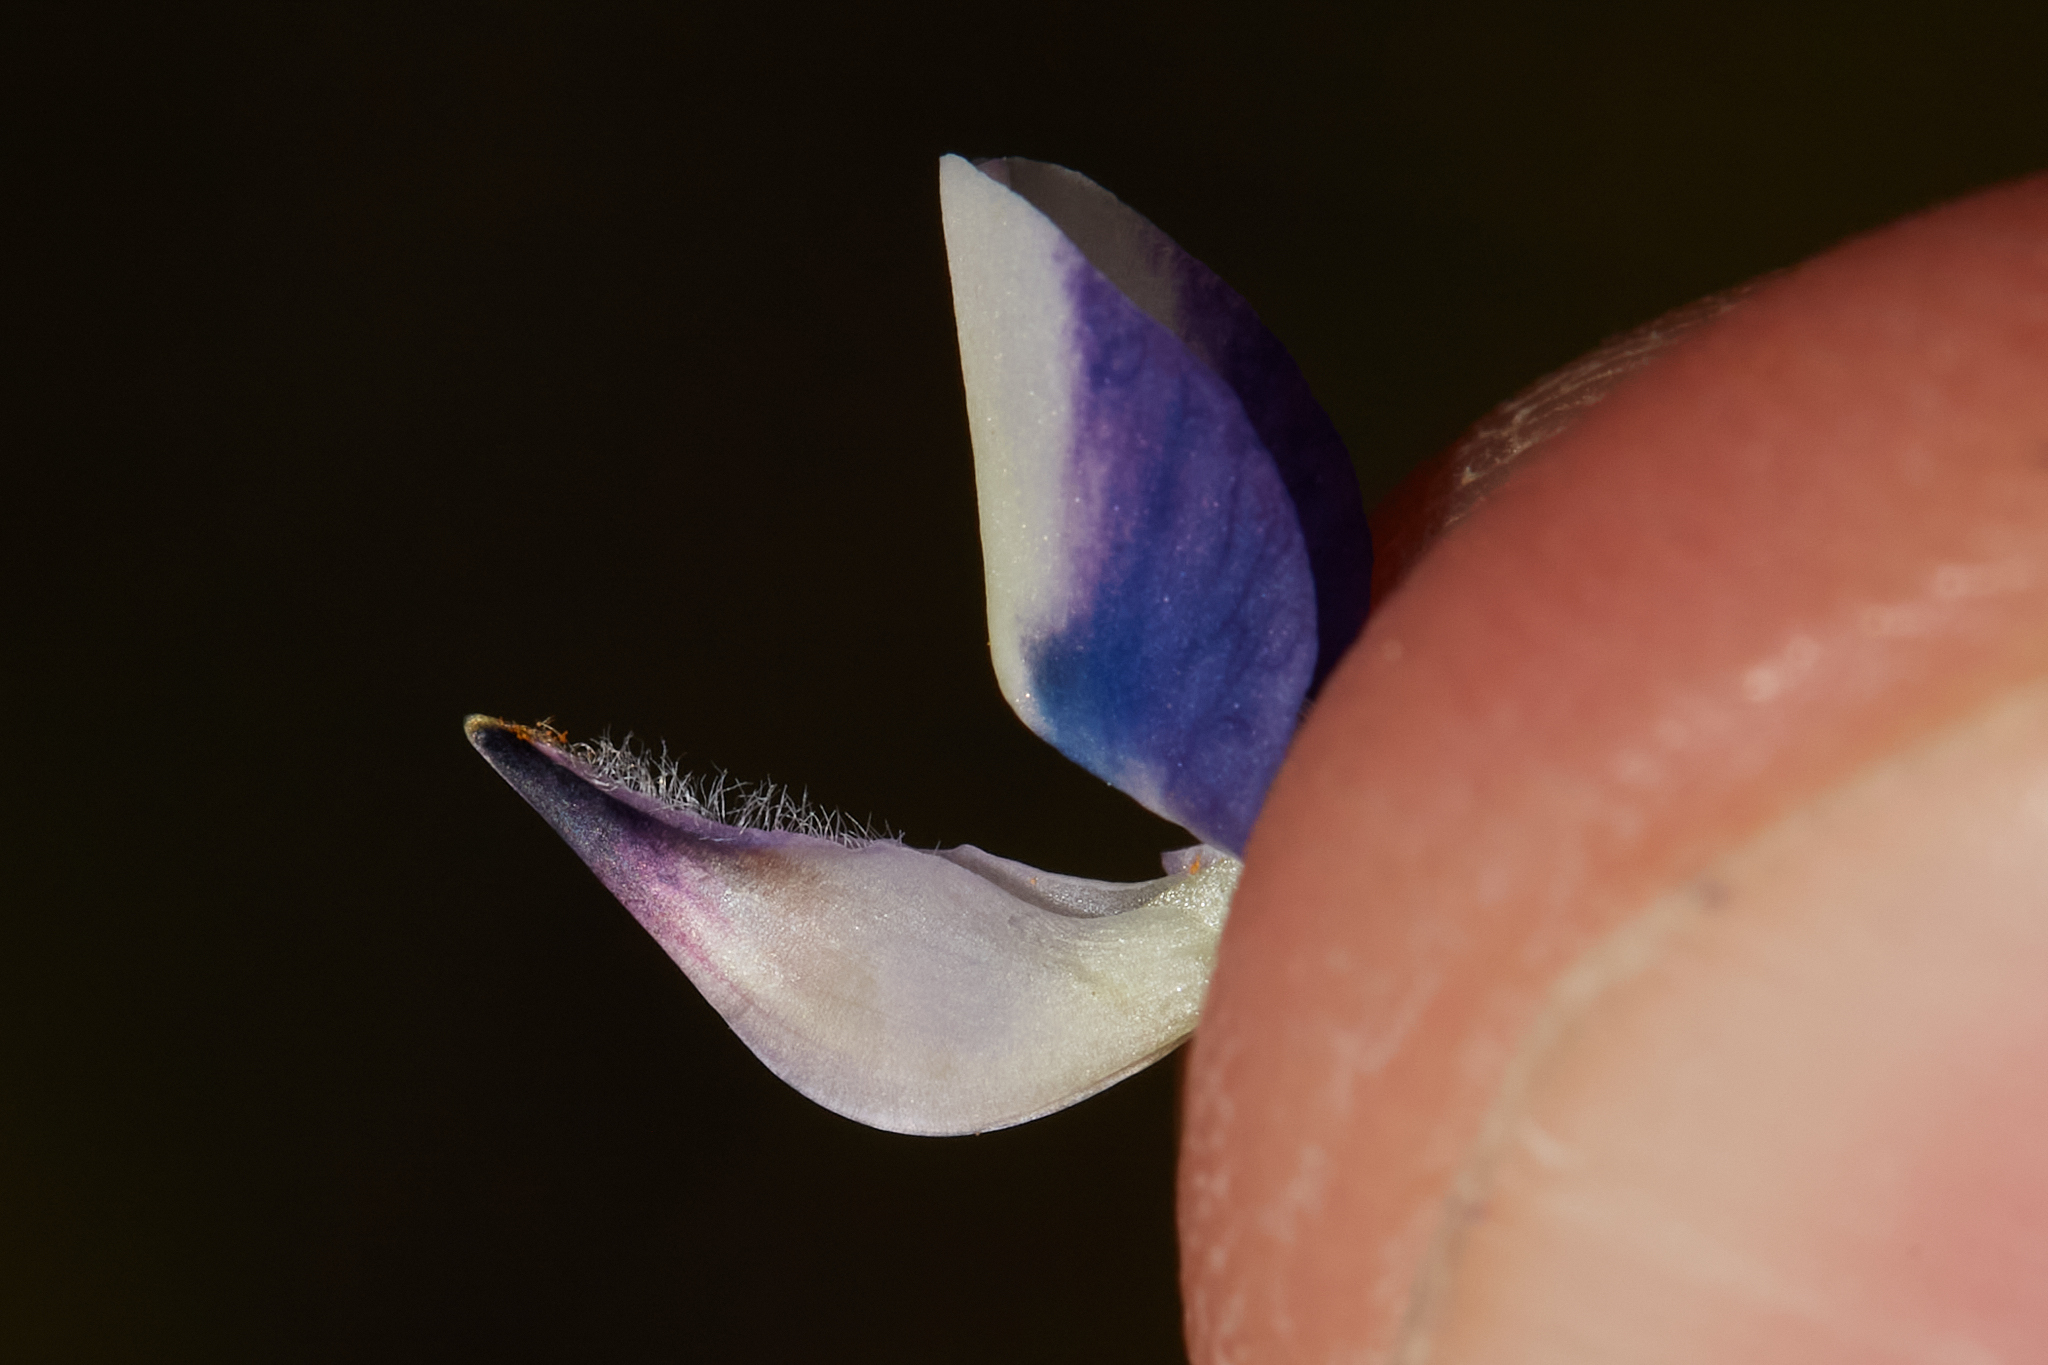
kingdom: Plantae
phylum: Tracheophyta
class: Magnoliopsida
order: Fabales
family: Fabaceae
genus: Lupinus
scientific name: Lupinus bicolor
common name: Miniature lupine
